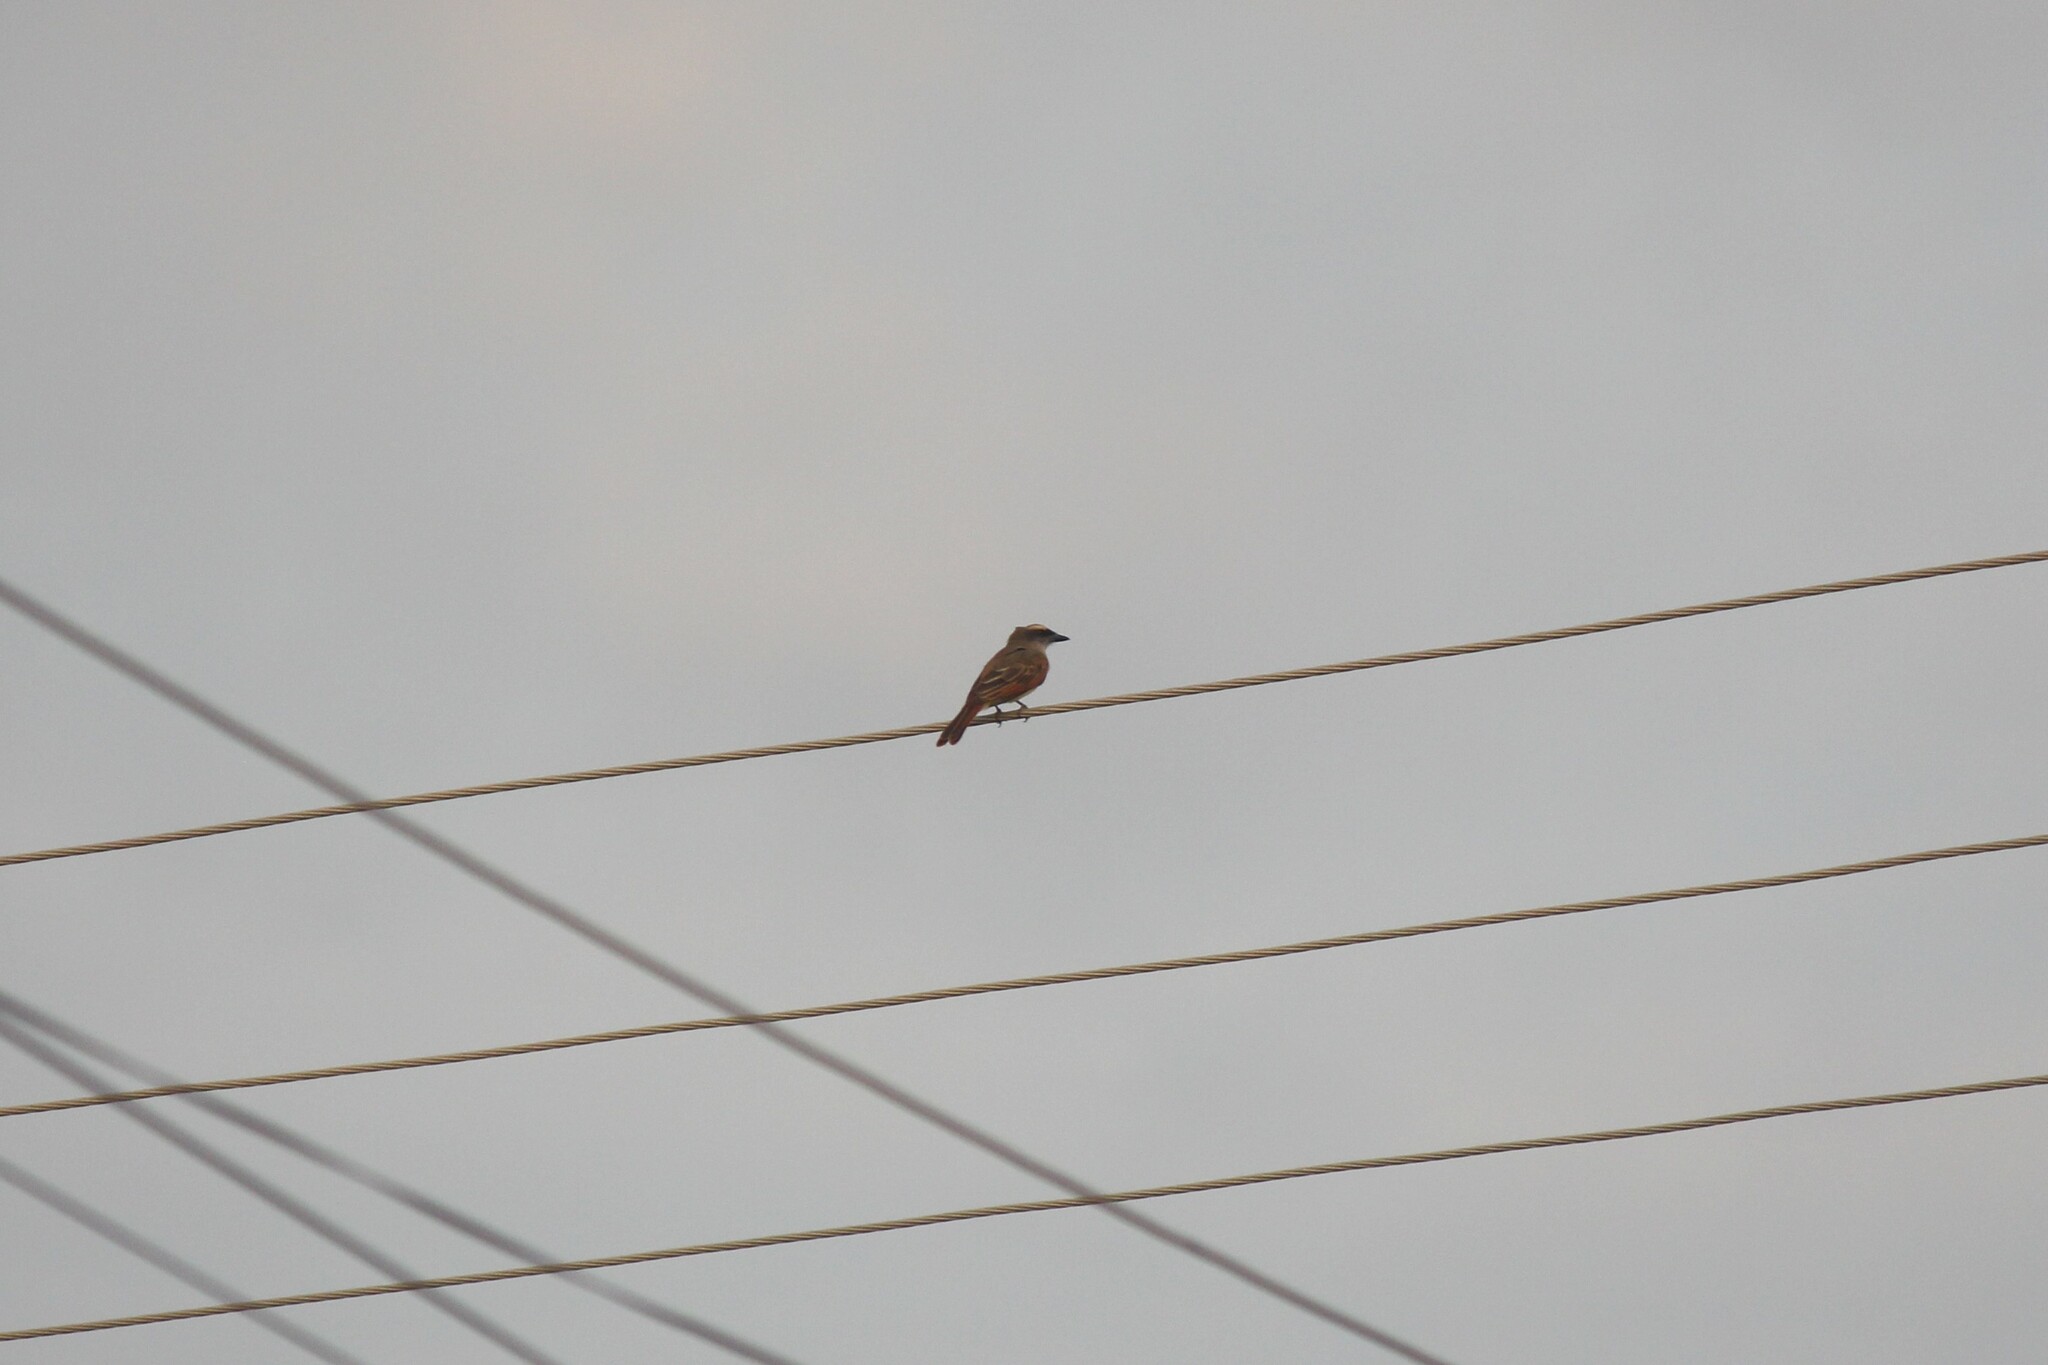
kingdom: Animalia
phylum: Chordata
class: Aves
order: Passeriformes
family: Tyrannidae
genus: Myiodynastes
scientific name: Myiodynastes bairdii
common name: Baird's flycatcher
